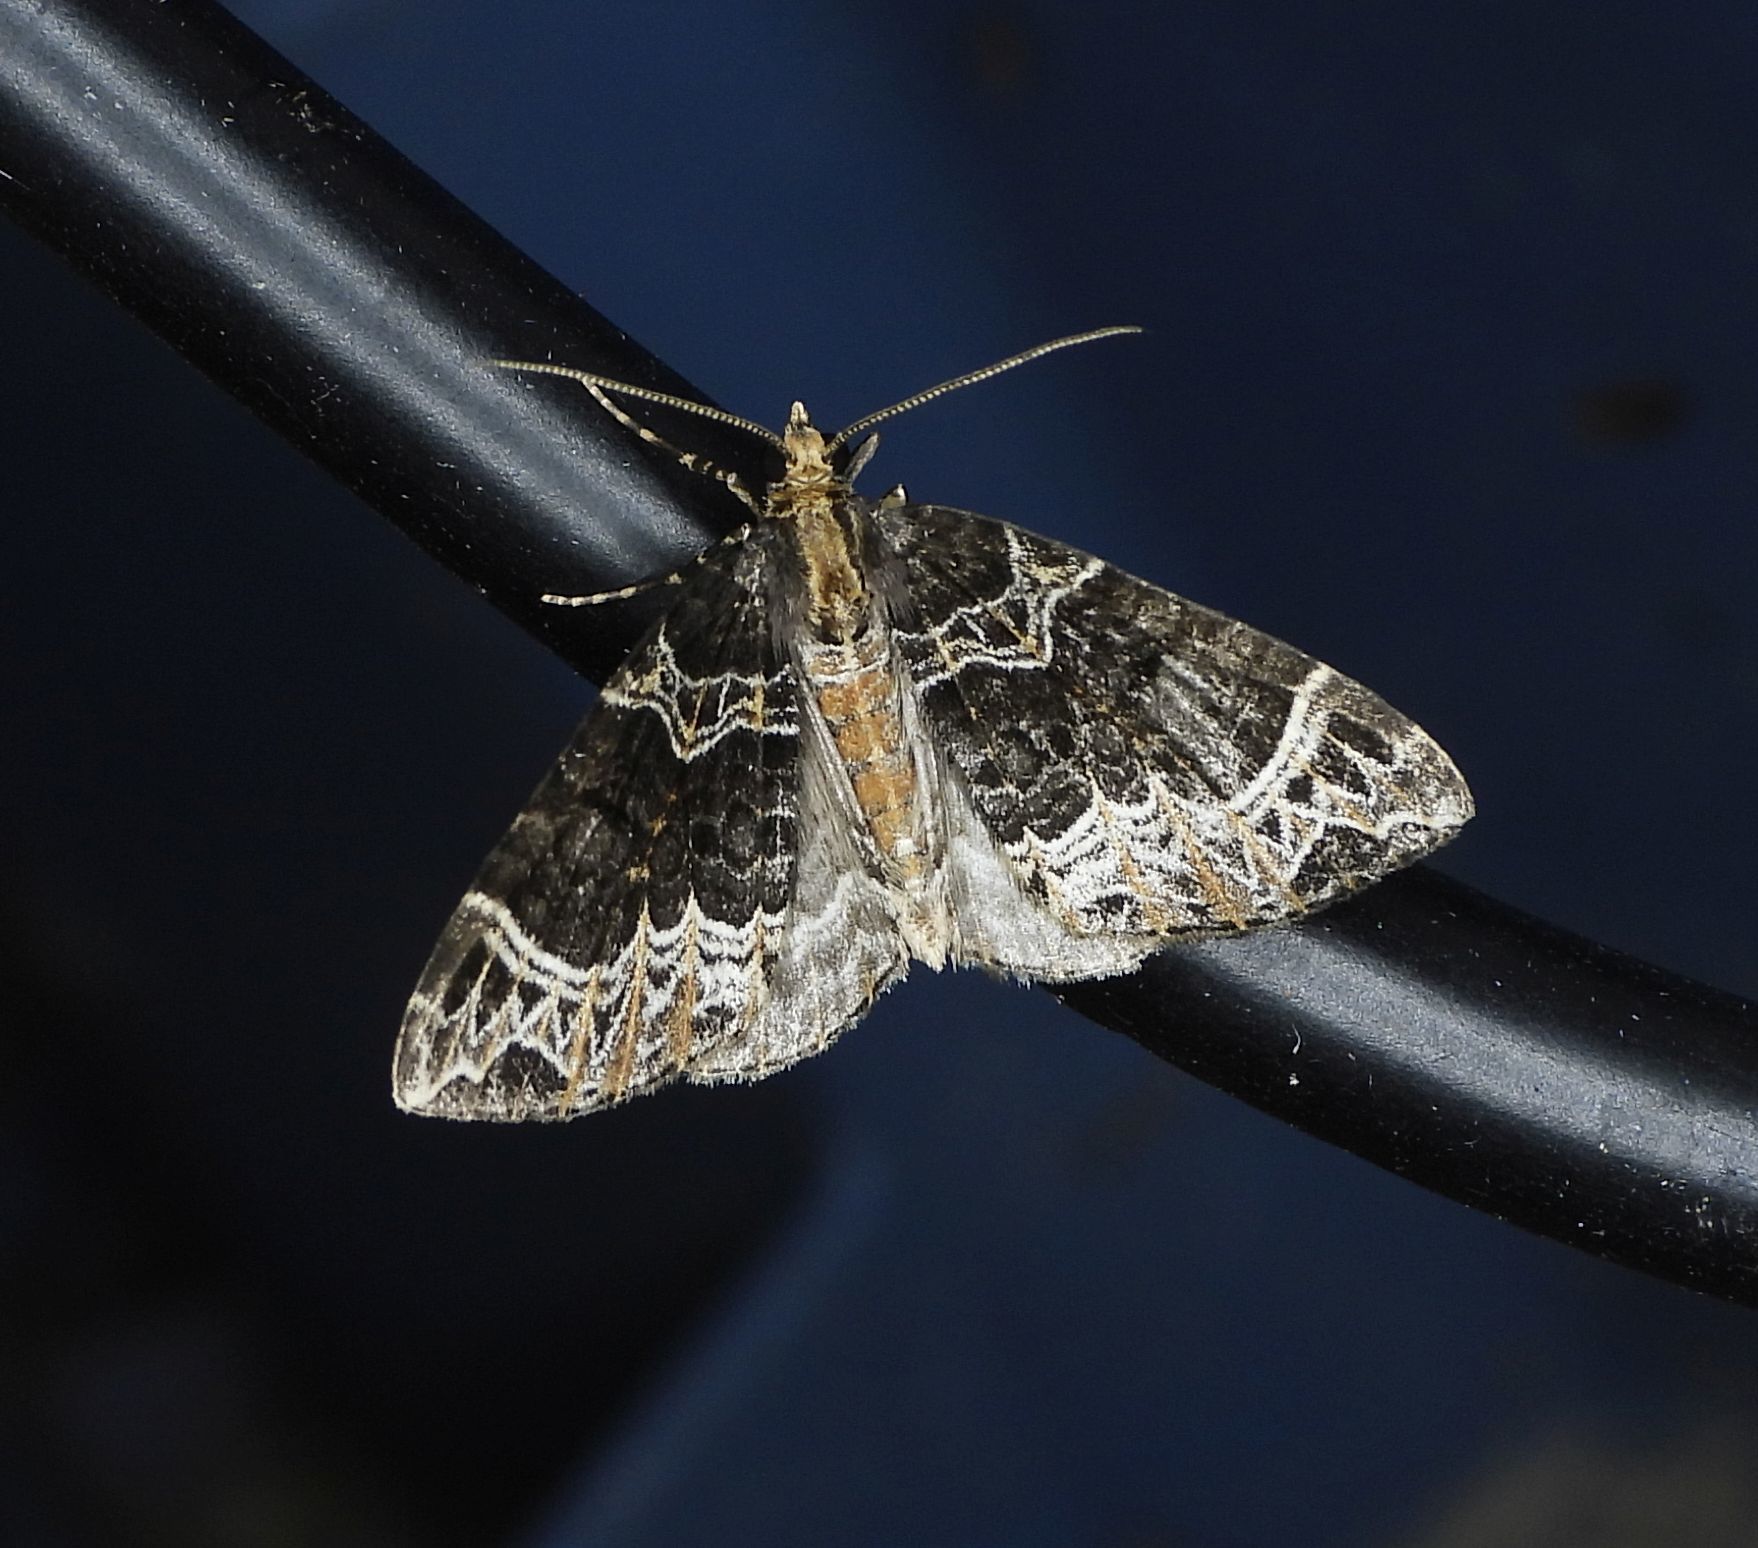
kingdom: Animalia
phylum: Arthropoda
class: Insecta
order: Lepidoptera
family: Geometridae
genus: Ecliptopera
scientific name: Ecliptopera silaceata
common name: Small phoenix
